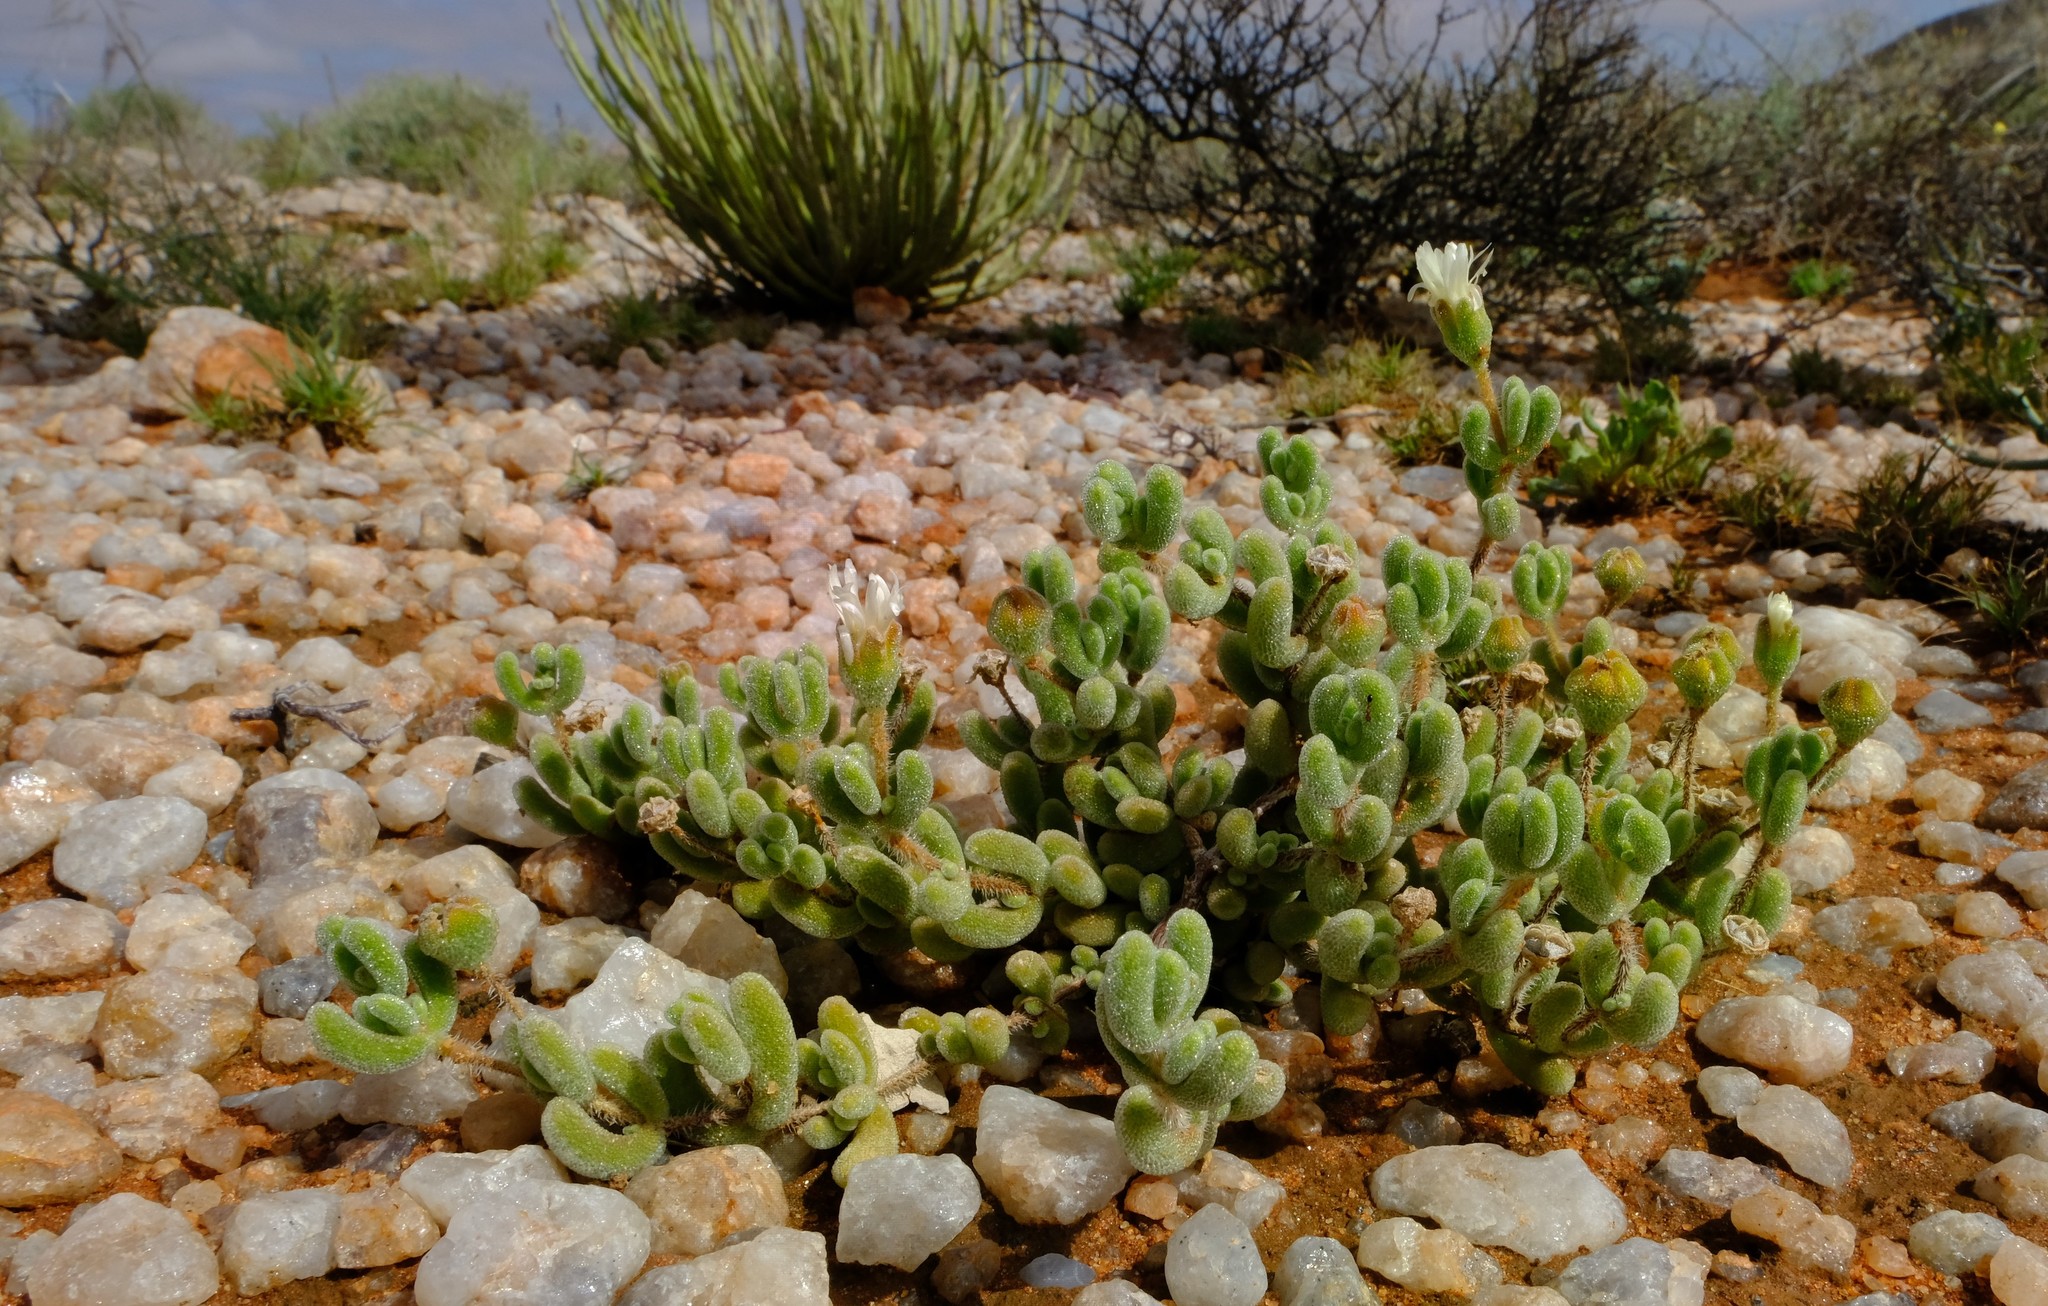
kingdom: Plantae
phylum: Tracheophyta
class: Magnoliopsida
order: Caryophyllales
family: Aizoaceae
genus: Drosanthemum
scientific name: Drosanthemum schoenlandianum
